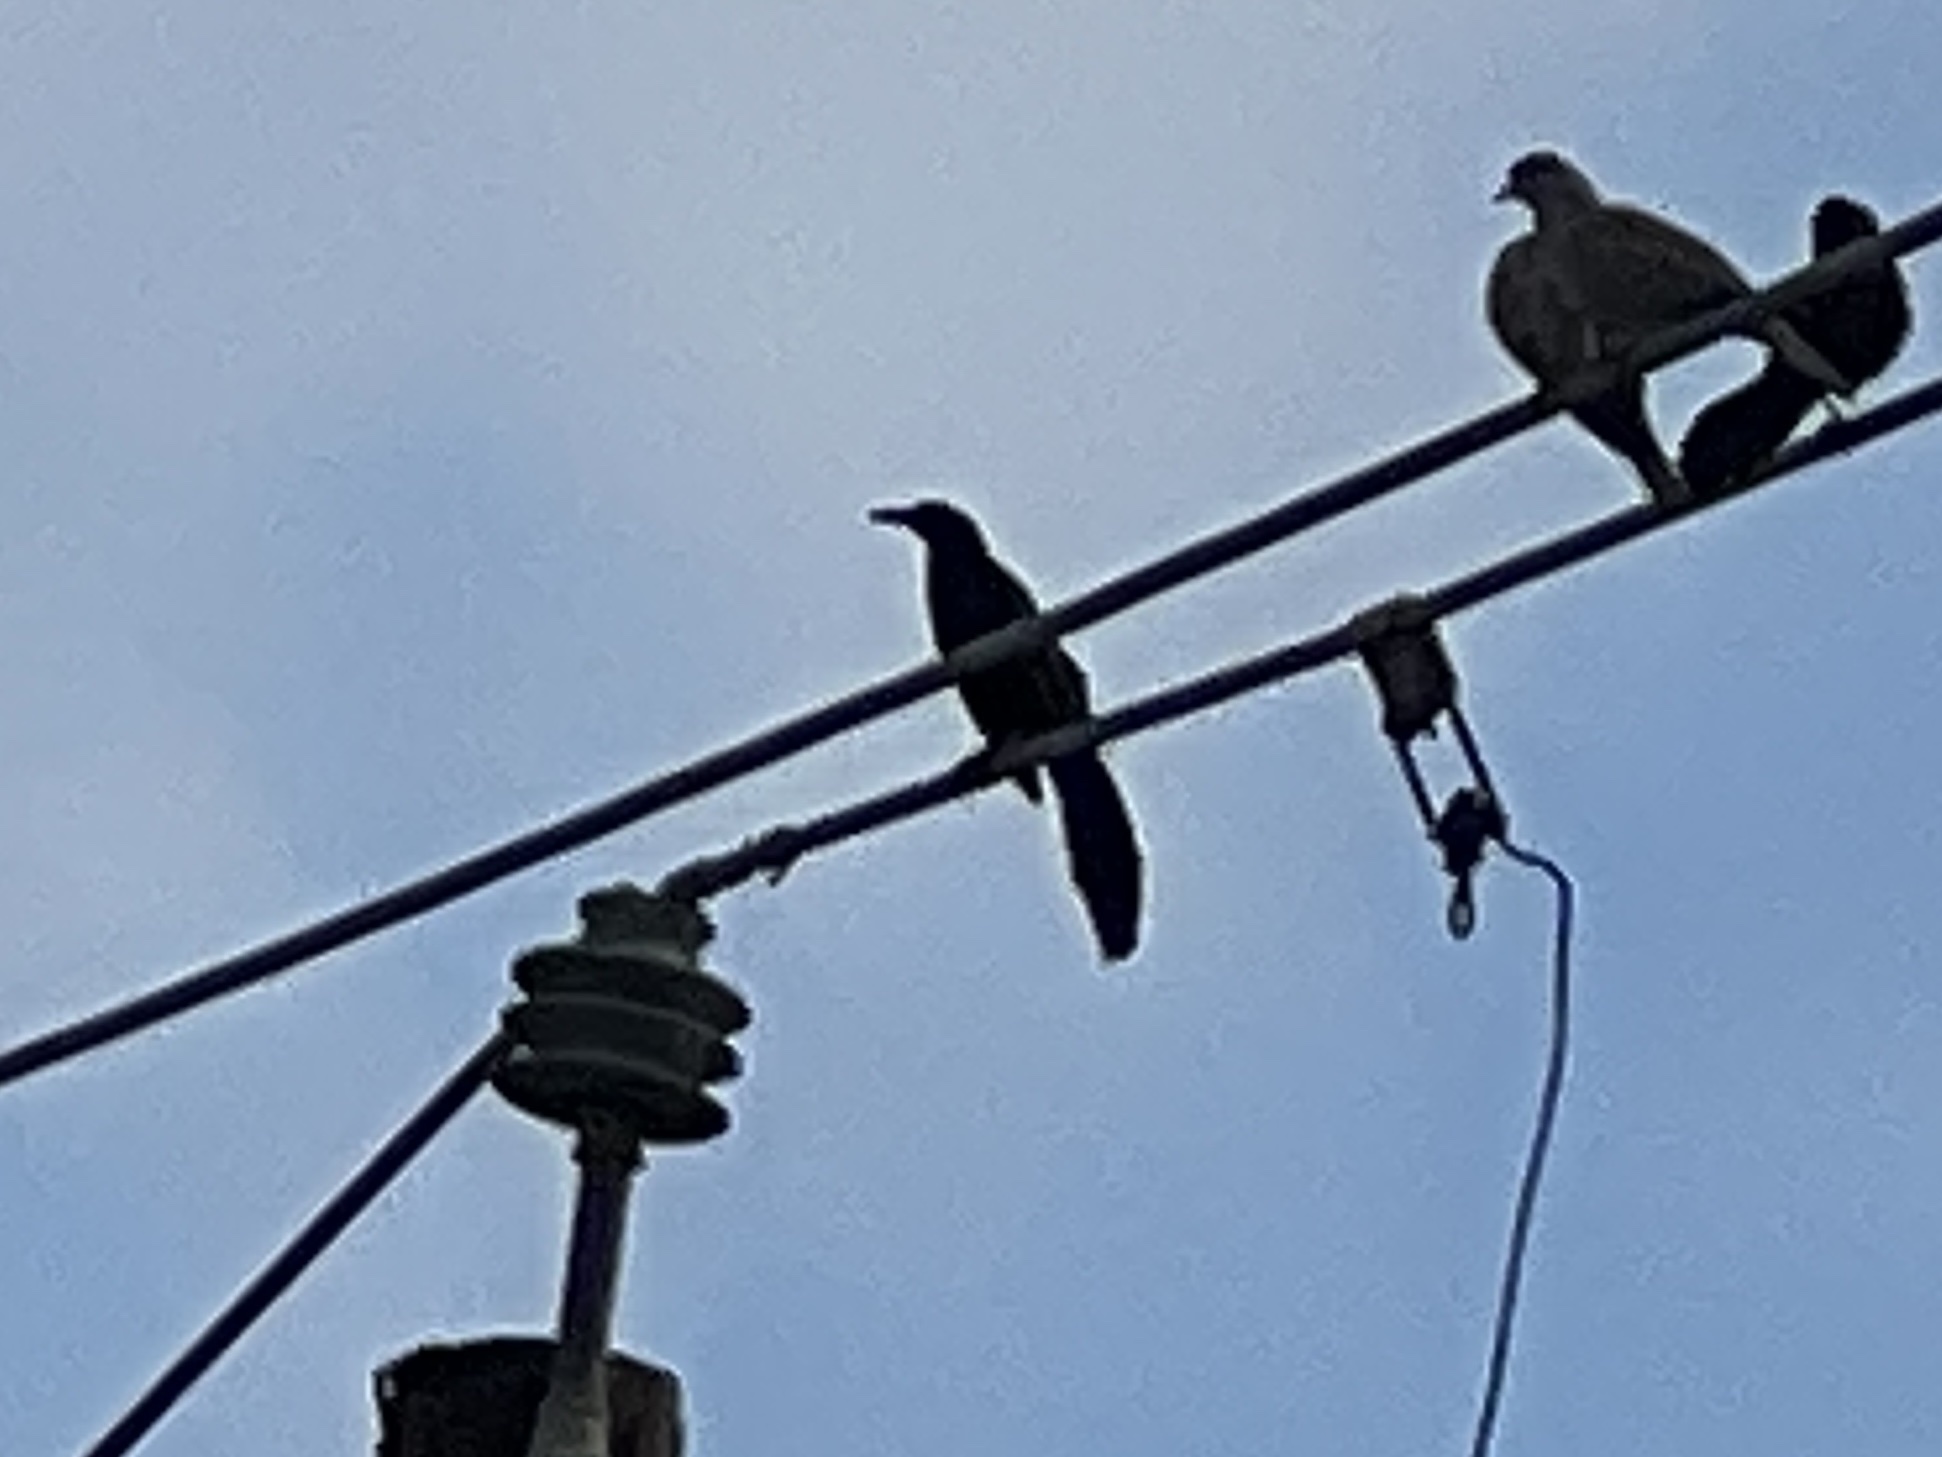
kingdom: Animalia
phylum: Chordata
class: Aves
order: Passeriformes
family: Icteridae
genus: Quiscalus
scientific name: Quiscalus mexicanus
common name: Great-tailed grackle
